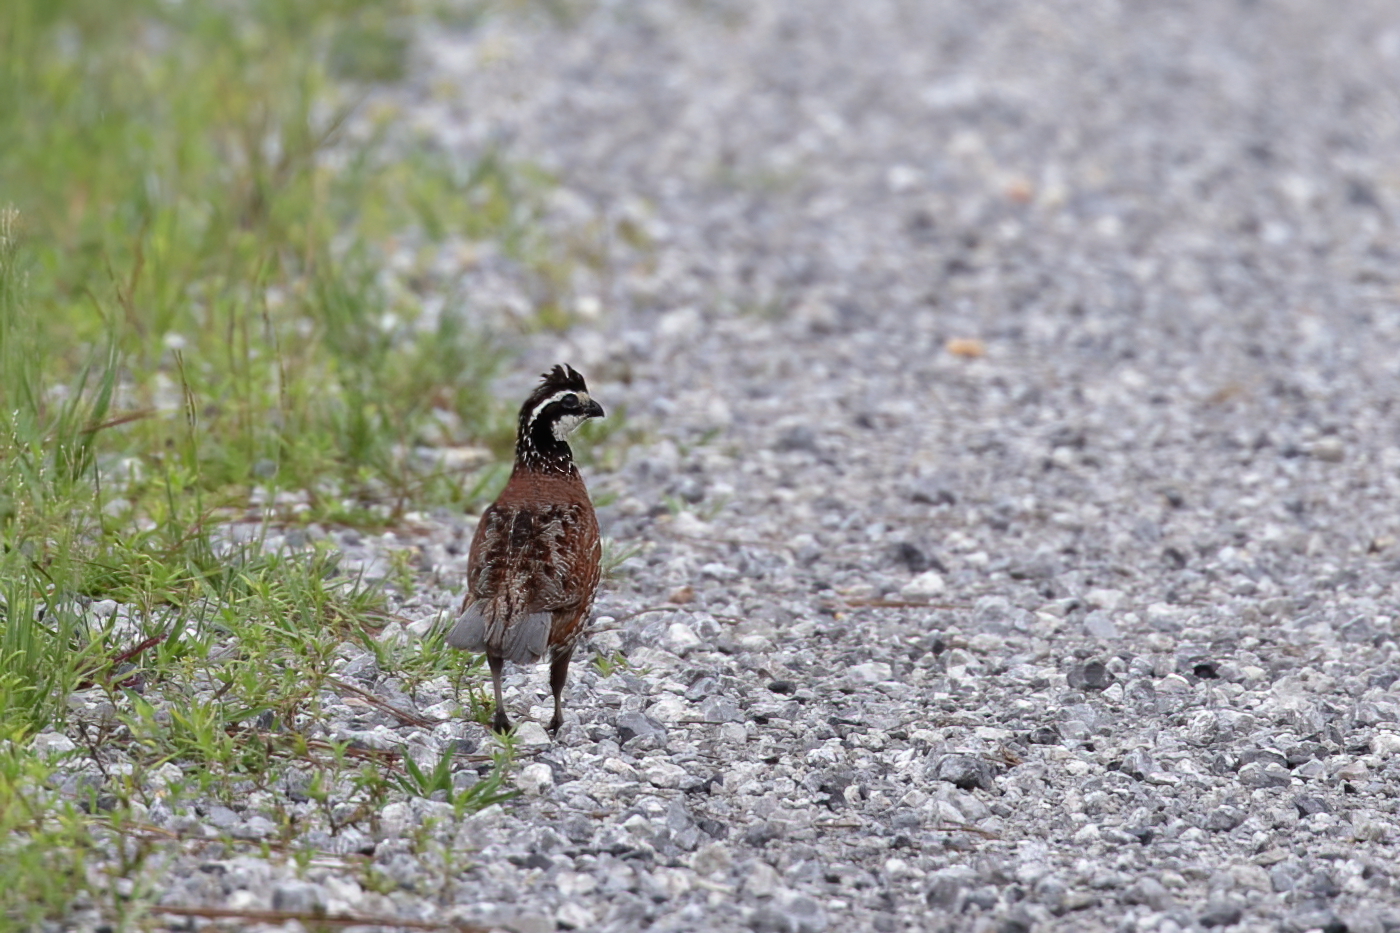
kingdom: Animalia
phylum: Chordata
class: Aves
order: Galliformes
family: Odontophoridae
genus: Colinus
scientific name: Colinus virginianus
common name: Northern bobwhite
